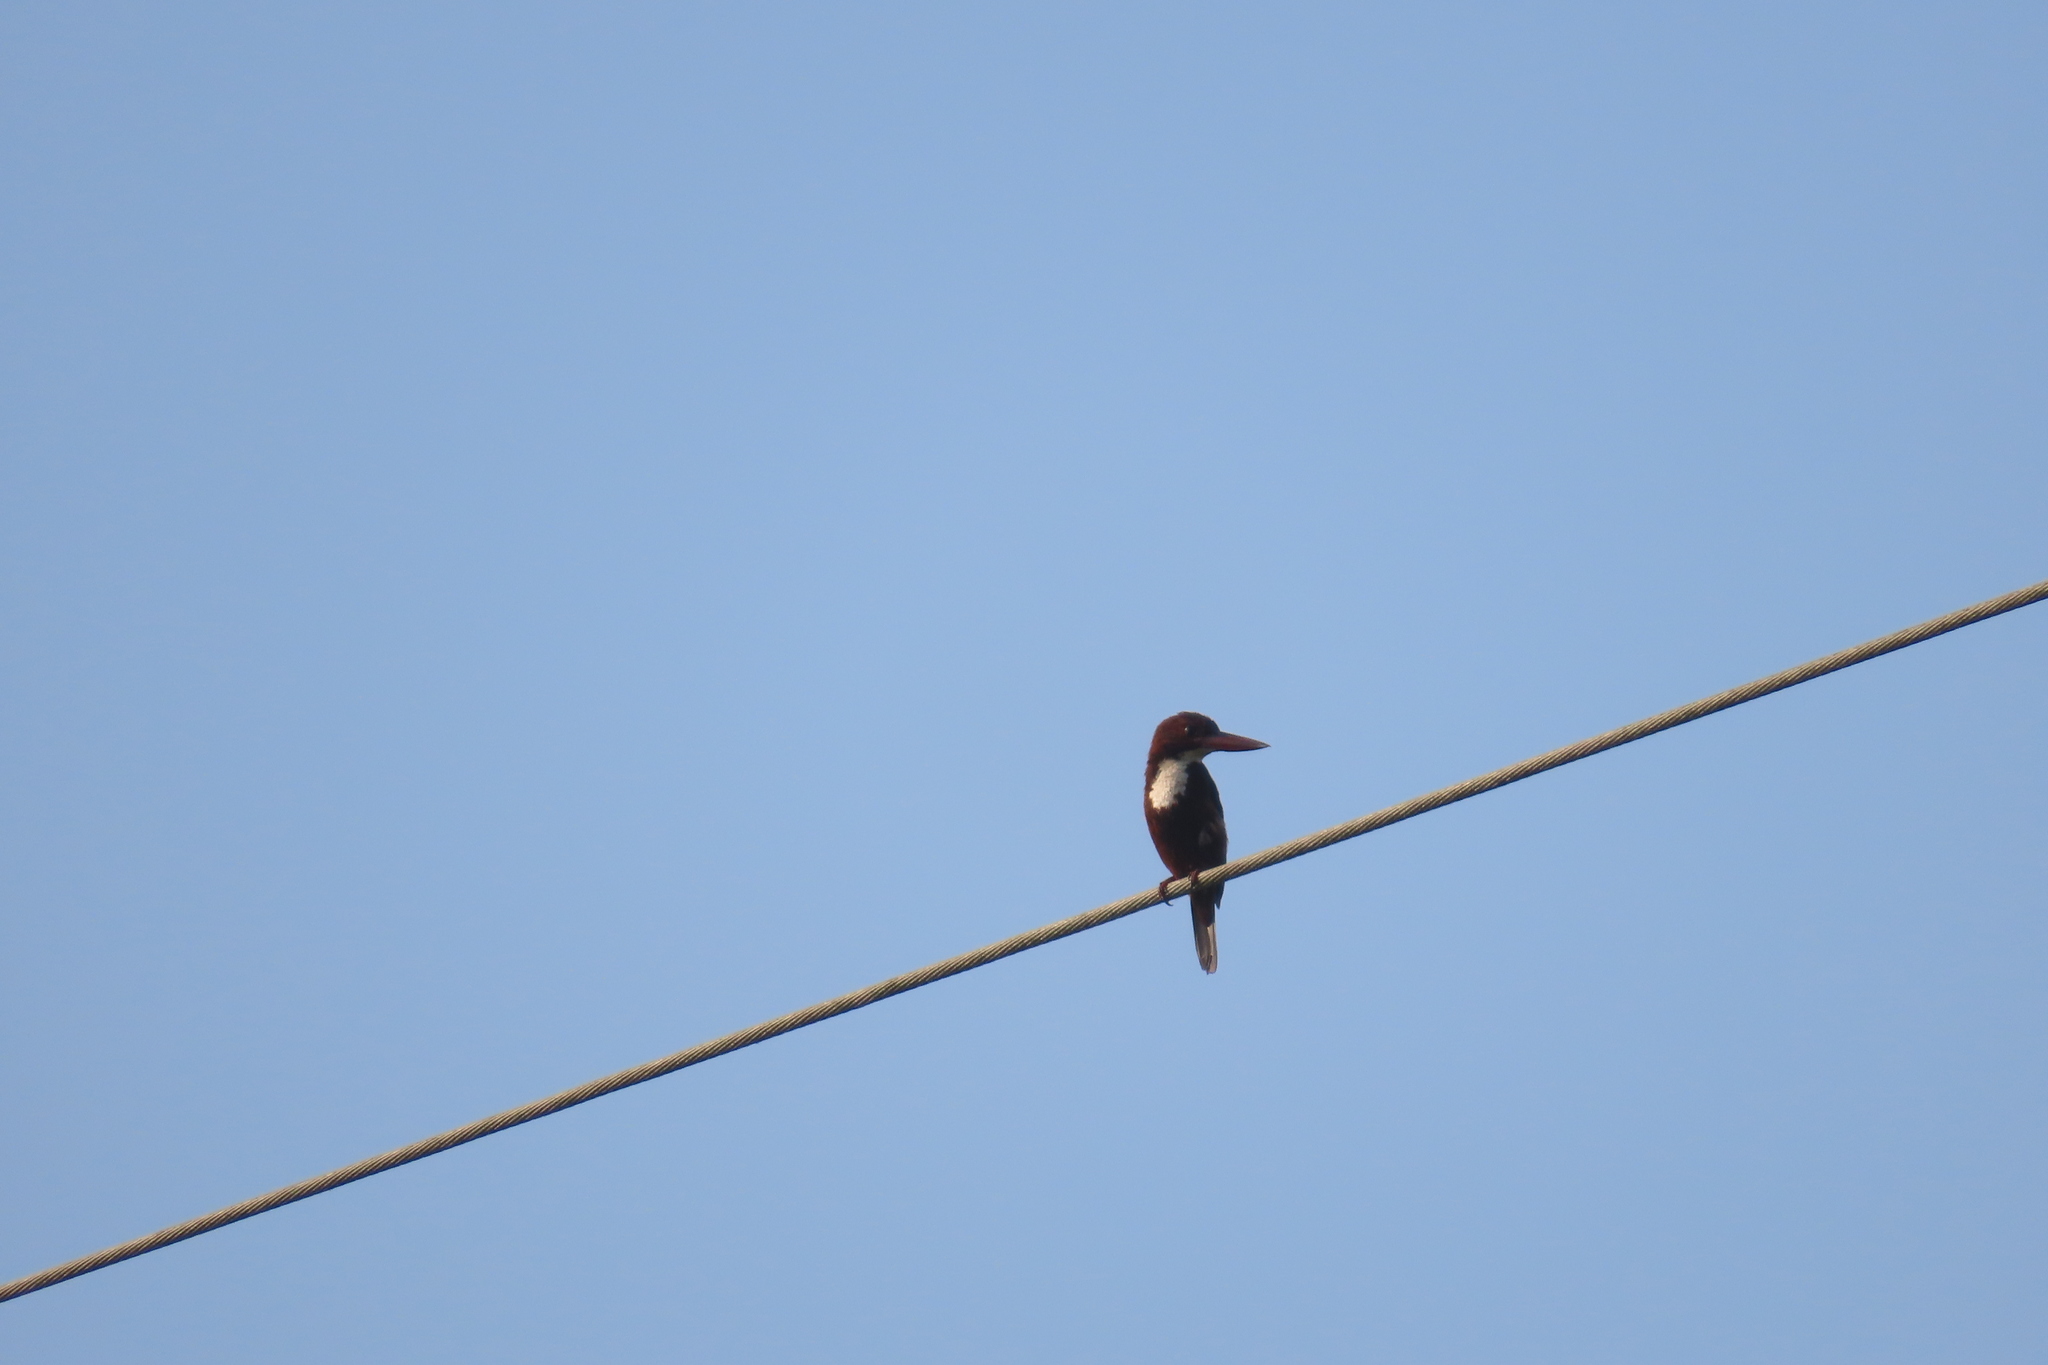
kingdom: Animalia
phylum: Chordata
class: Aves
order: Coraciiformes
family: Alcedinidae
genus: Halcyon
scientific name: Halcyon smyrnensis
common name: White-throated kingfisher
